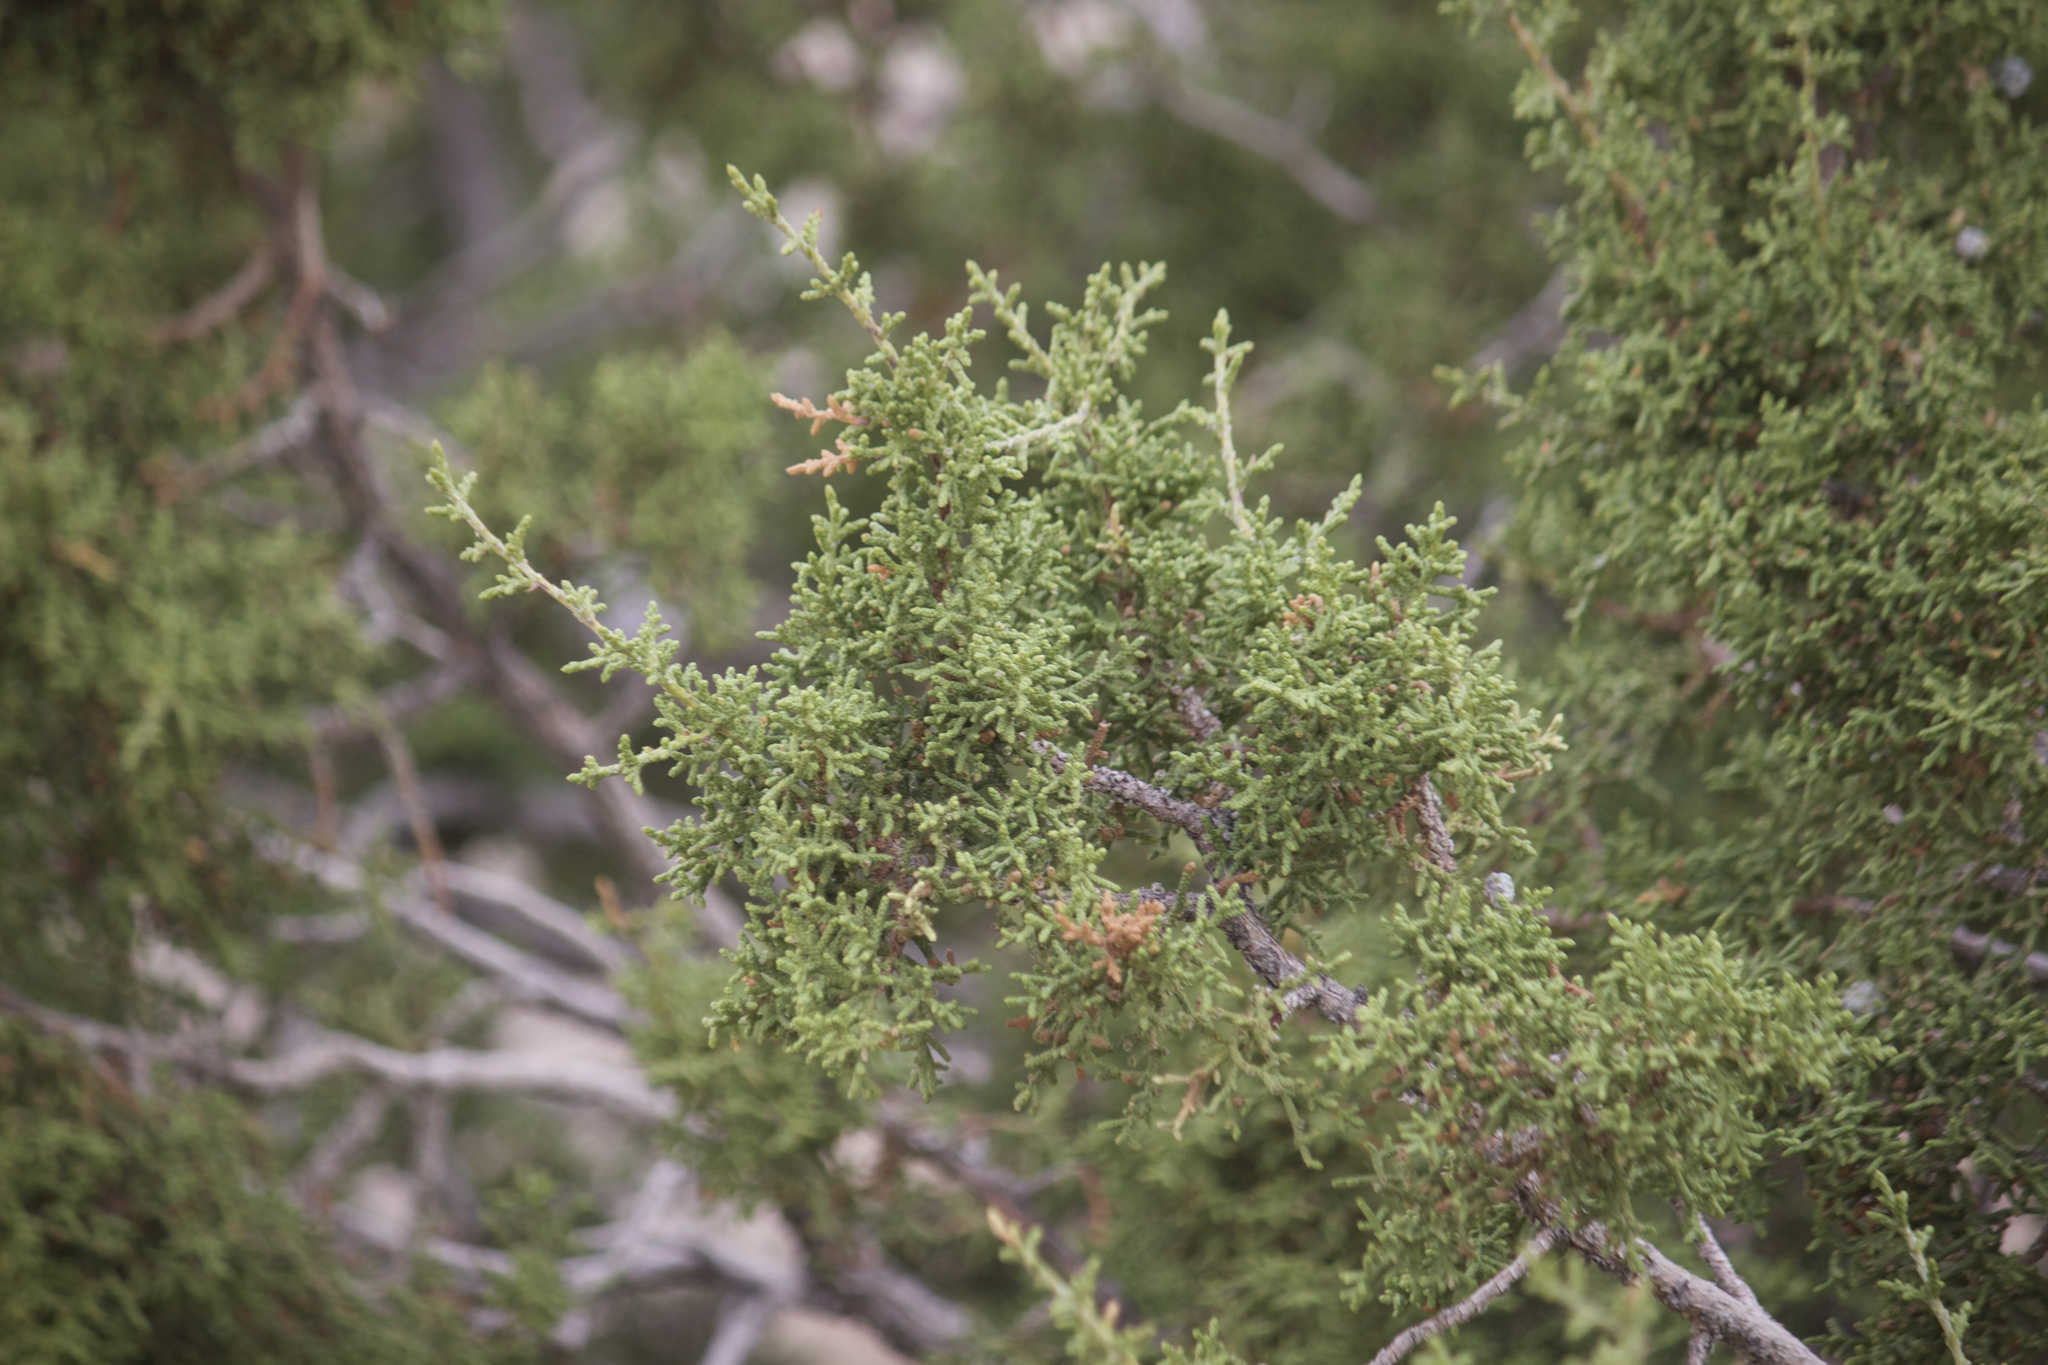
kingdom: Plantae
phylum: Tracheophyta
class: Pinopsida
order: Pinales
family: Cupressaceae
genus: Juniperus
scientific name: Juniperus californica
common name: California juniper
